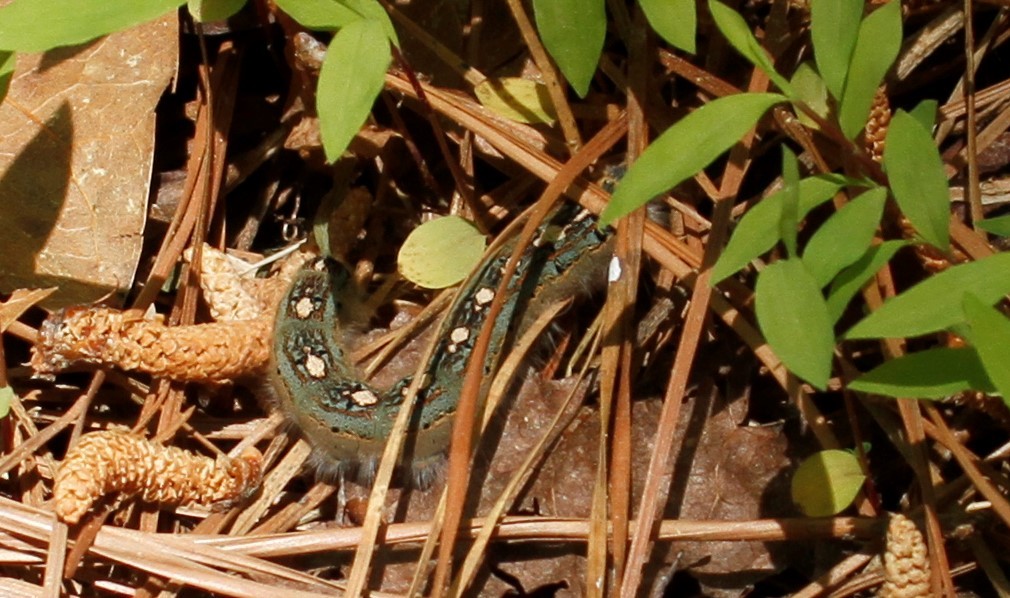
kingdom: Animalia
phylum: Arthropoda
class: Insecta
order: Lepidoptera
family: Lasiocampidae
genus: Malacosoma
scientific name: Malacosoma disstria
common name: Forest tent caterpillar
